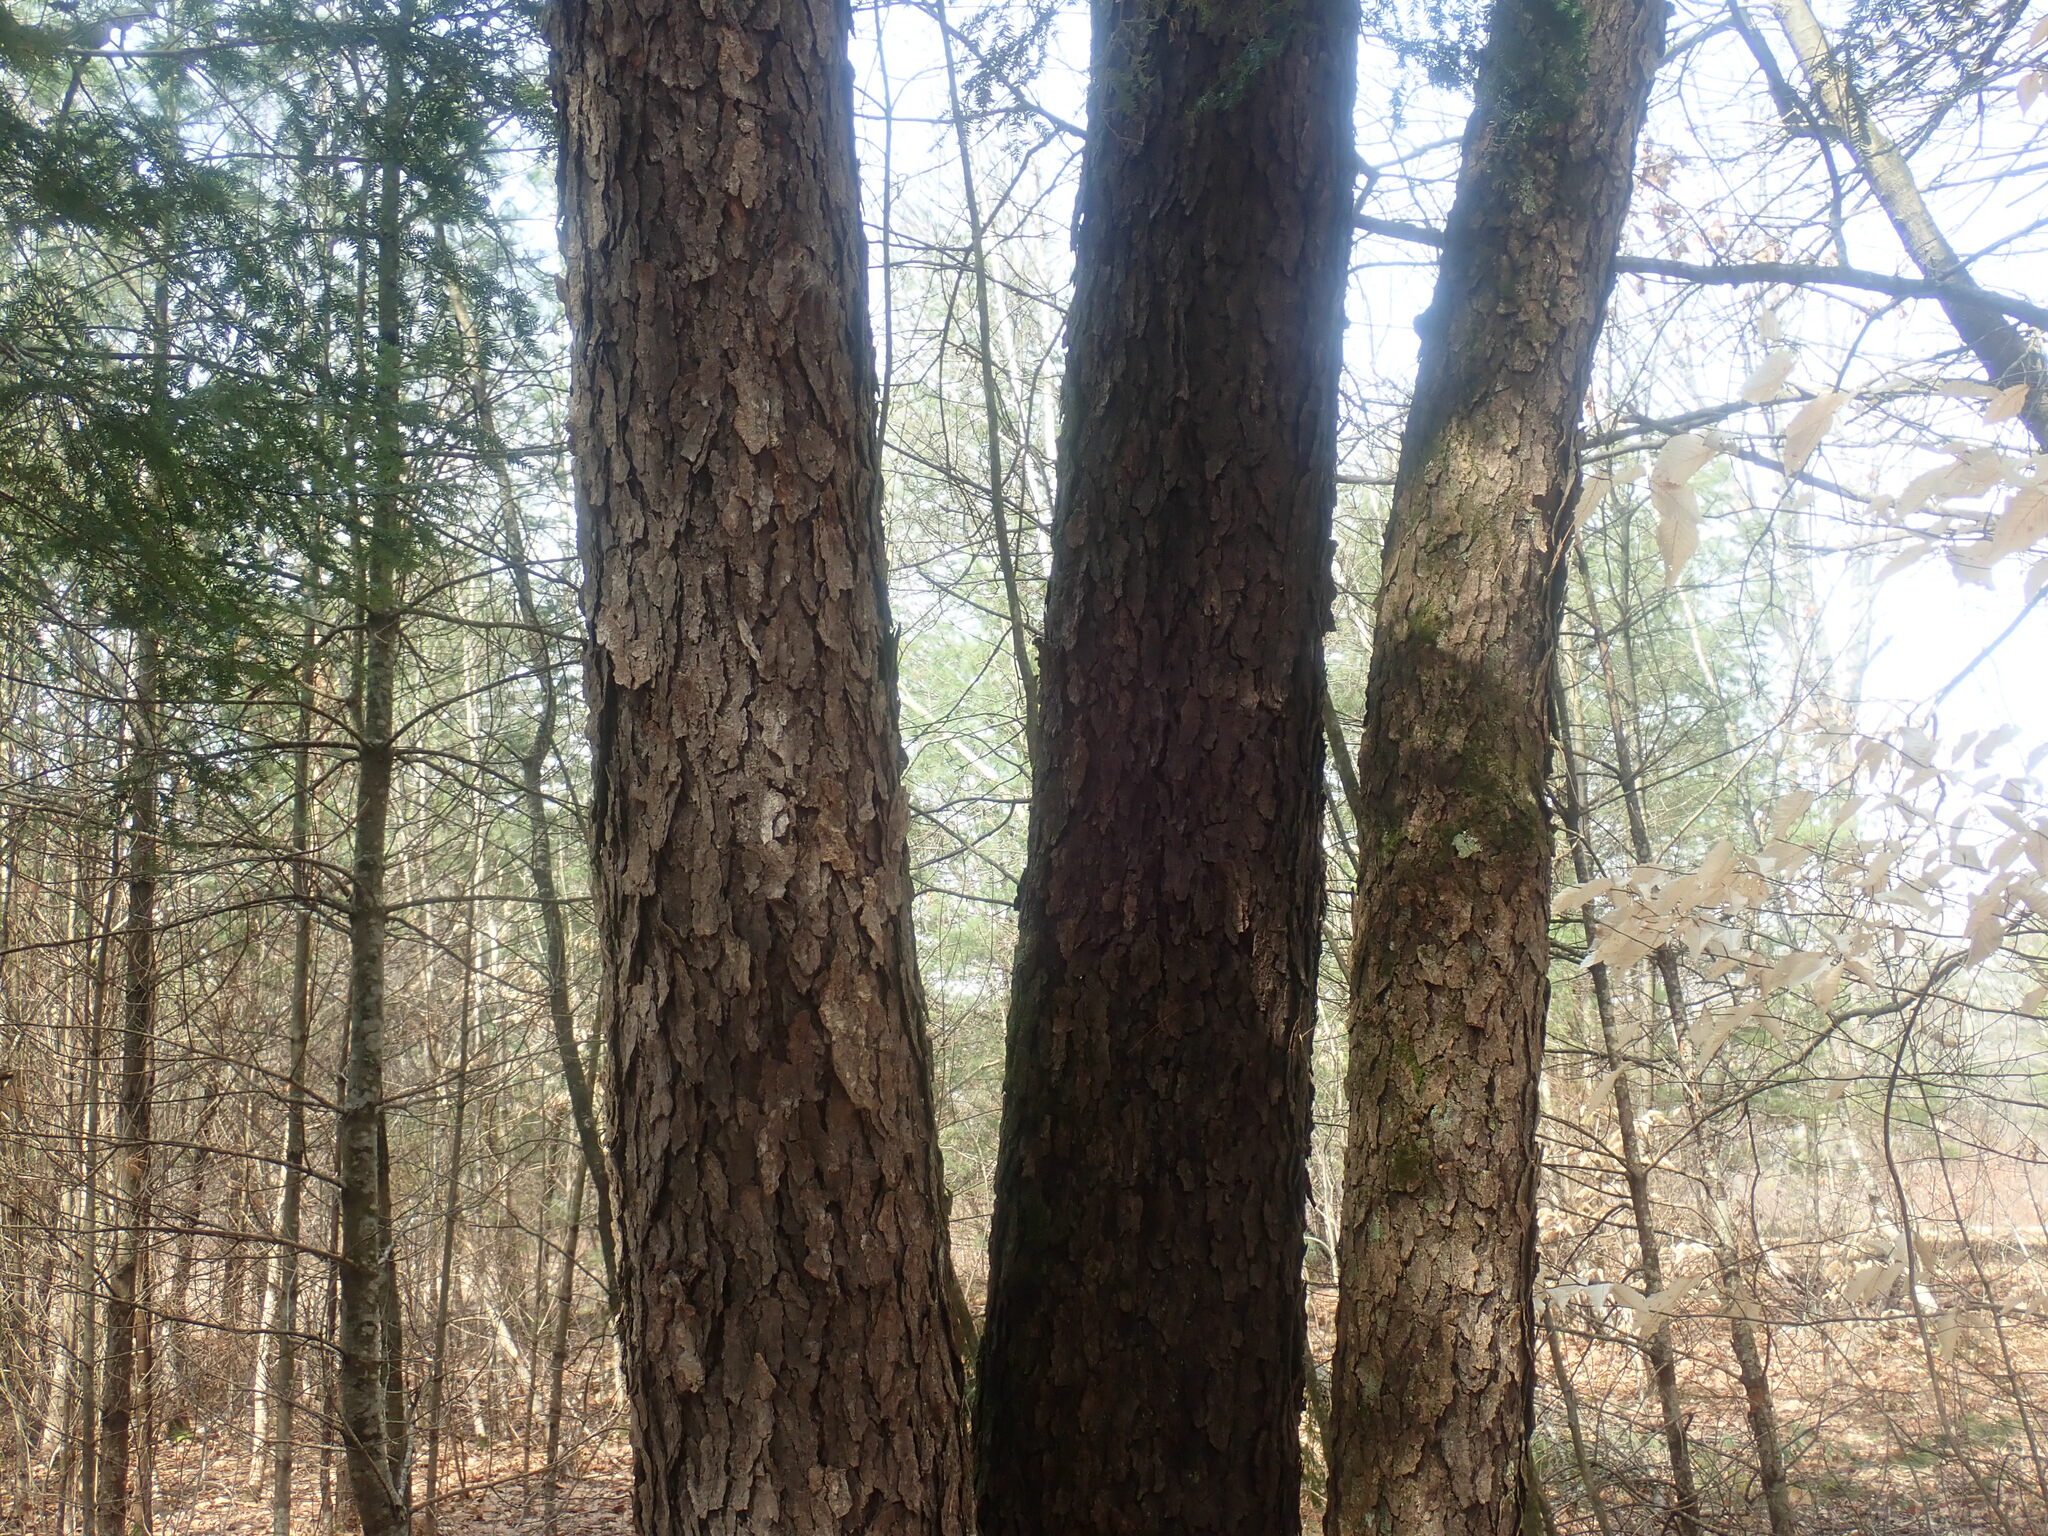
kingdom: Plantae
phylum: Tracheophyta
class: Magnoliopsida
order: Rosales
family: Rosaceae
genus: Prunus
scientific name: Prunus serotina
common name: Black cherry
